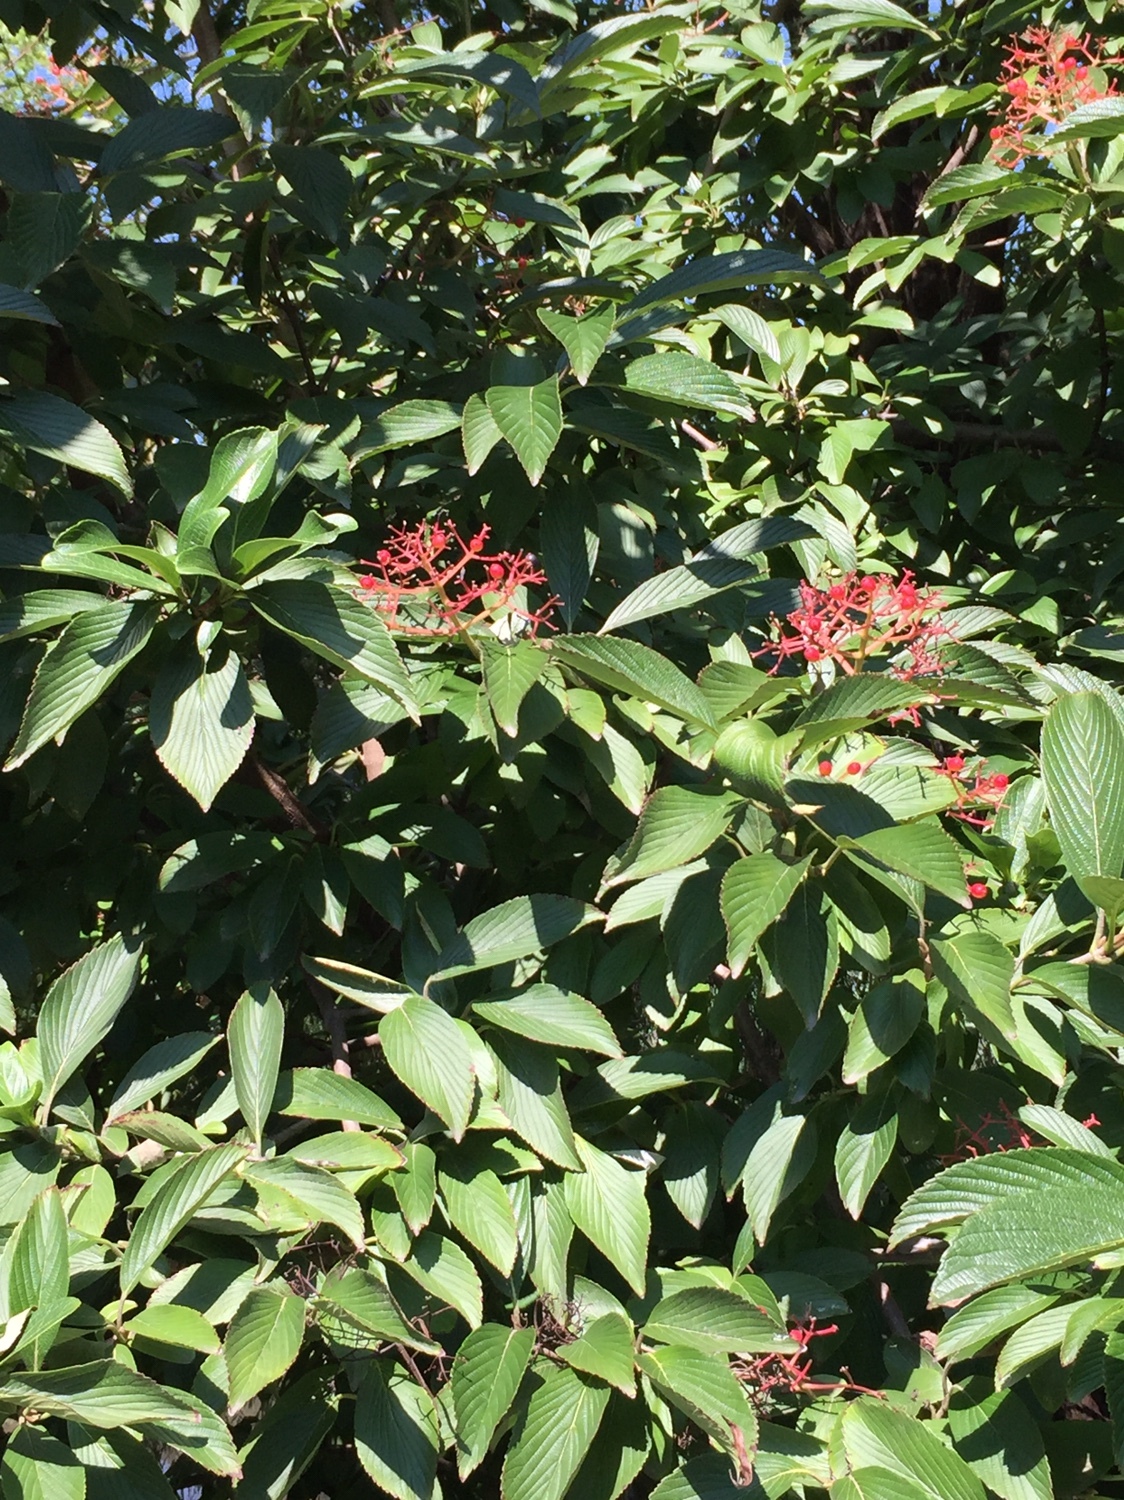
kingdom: Plantae
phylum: Tracheophyta
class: Magnoliopsida
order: Dipsacales
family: Viburnaceae
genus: Viburnum
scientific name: Viburnum sieboldii
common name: Siebold's arrowwood
